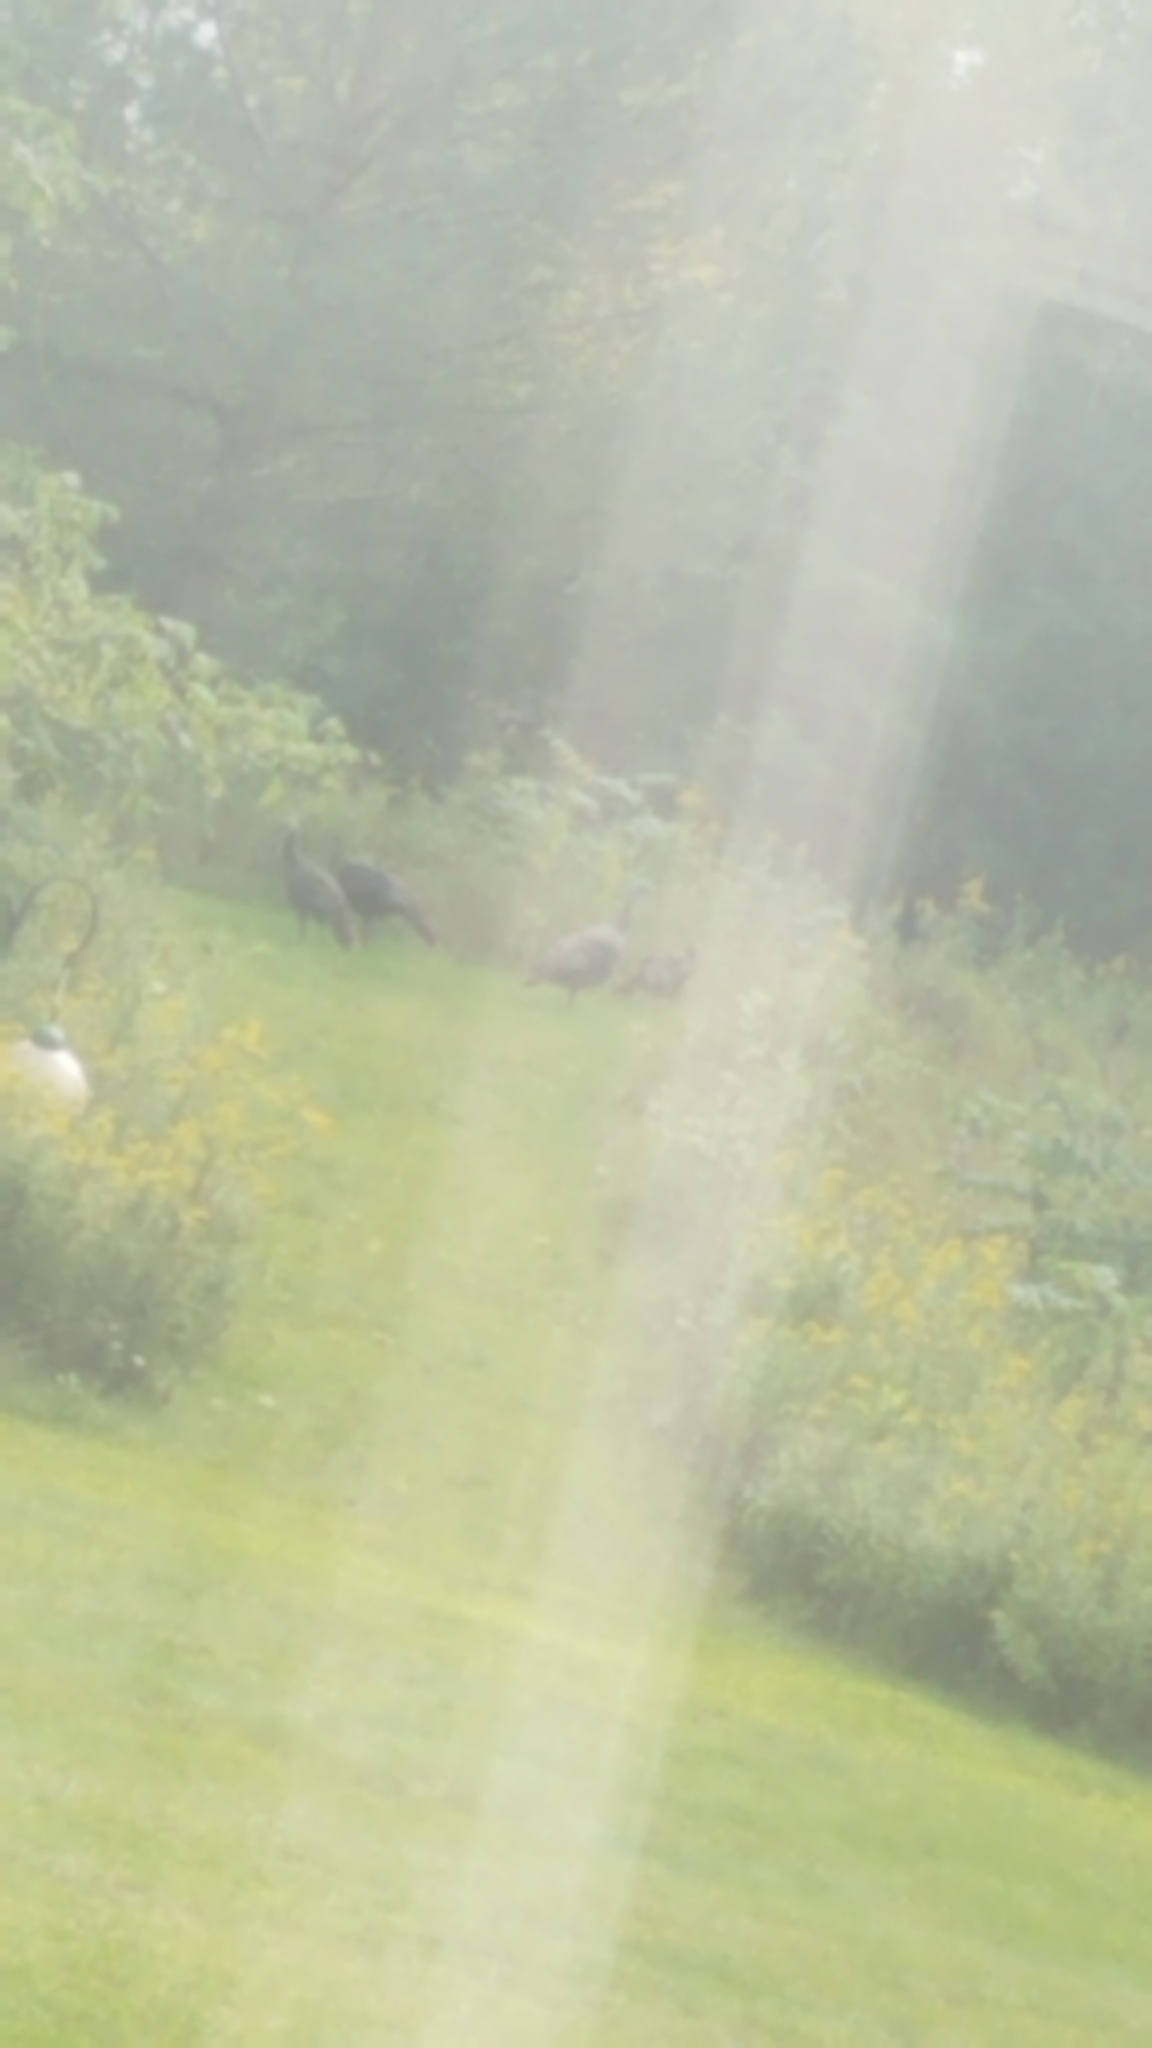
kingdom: Animalia
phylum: Chordata
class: Aves
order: Galliformes
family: Phasianidae
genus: Meleagris
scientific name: Meleagris gallopavo
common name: Wild turkey
